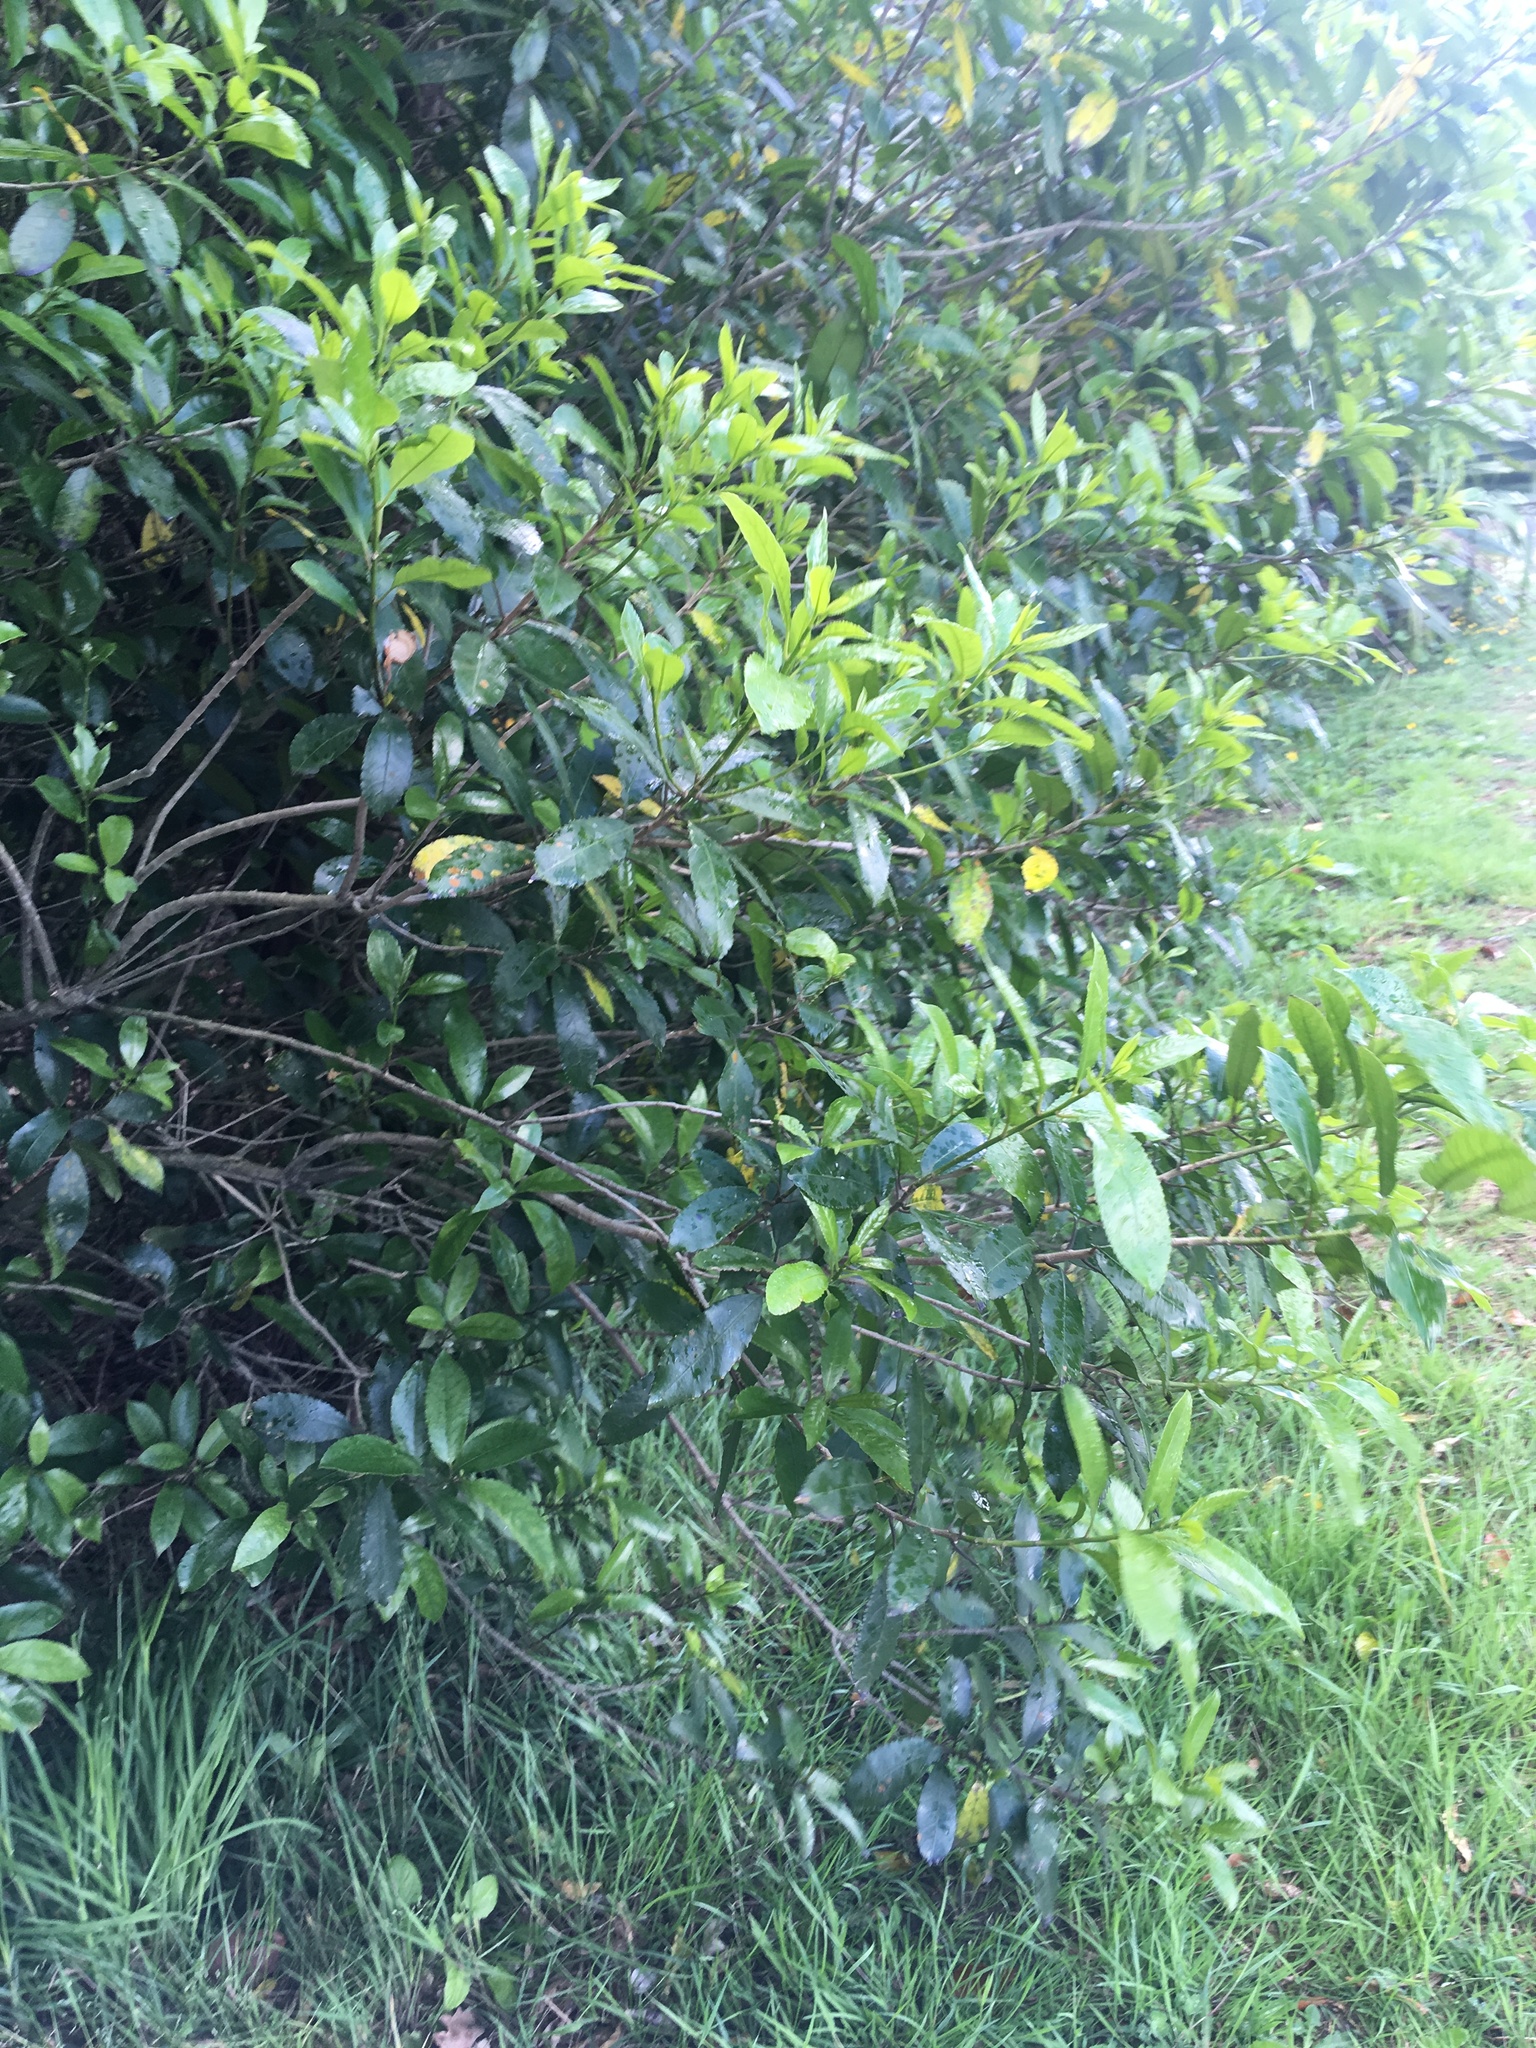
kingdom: Plantae
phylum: Tracheophyta
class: Magnoliopsida
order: Malpighiales
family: Violaceae
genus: Melicytus
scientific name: Melicytus ramiflorus
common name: Mahoe
